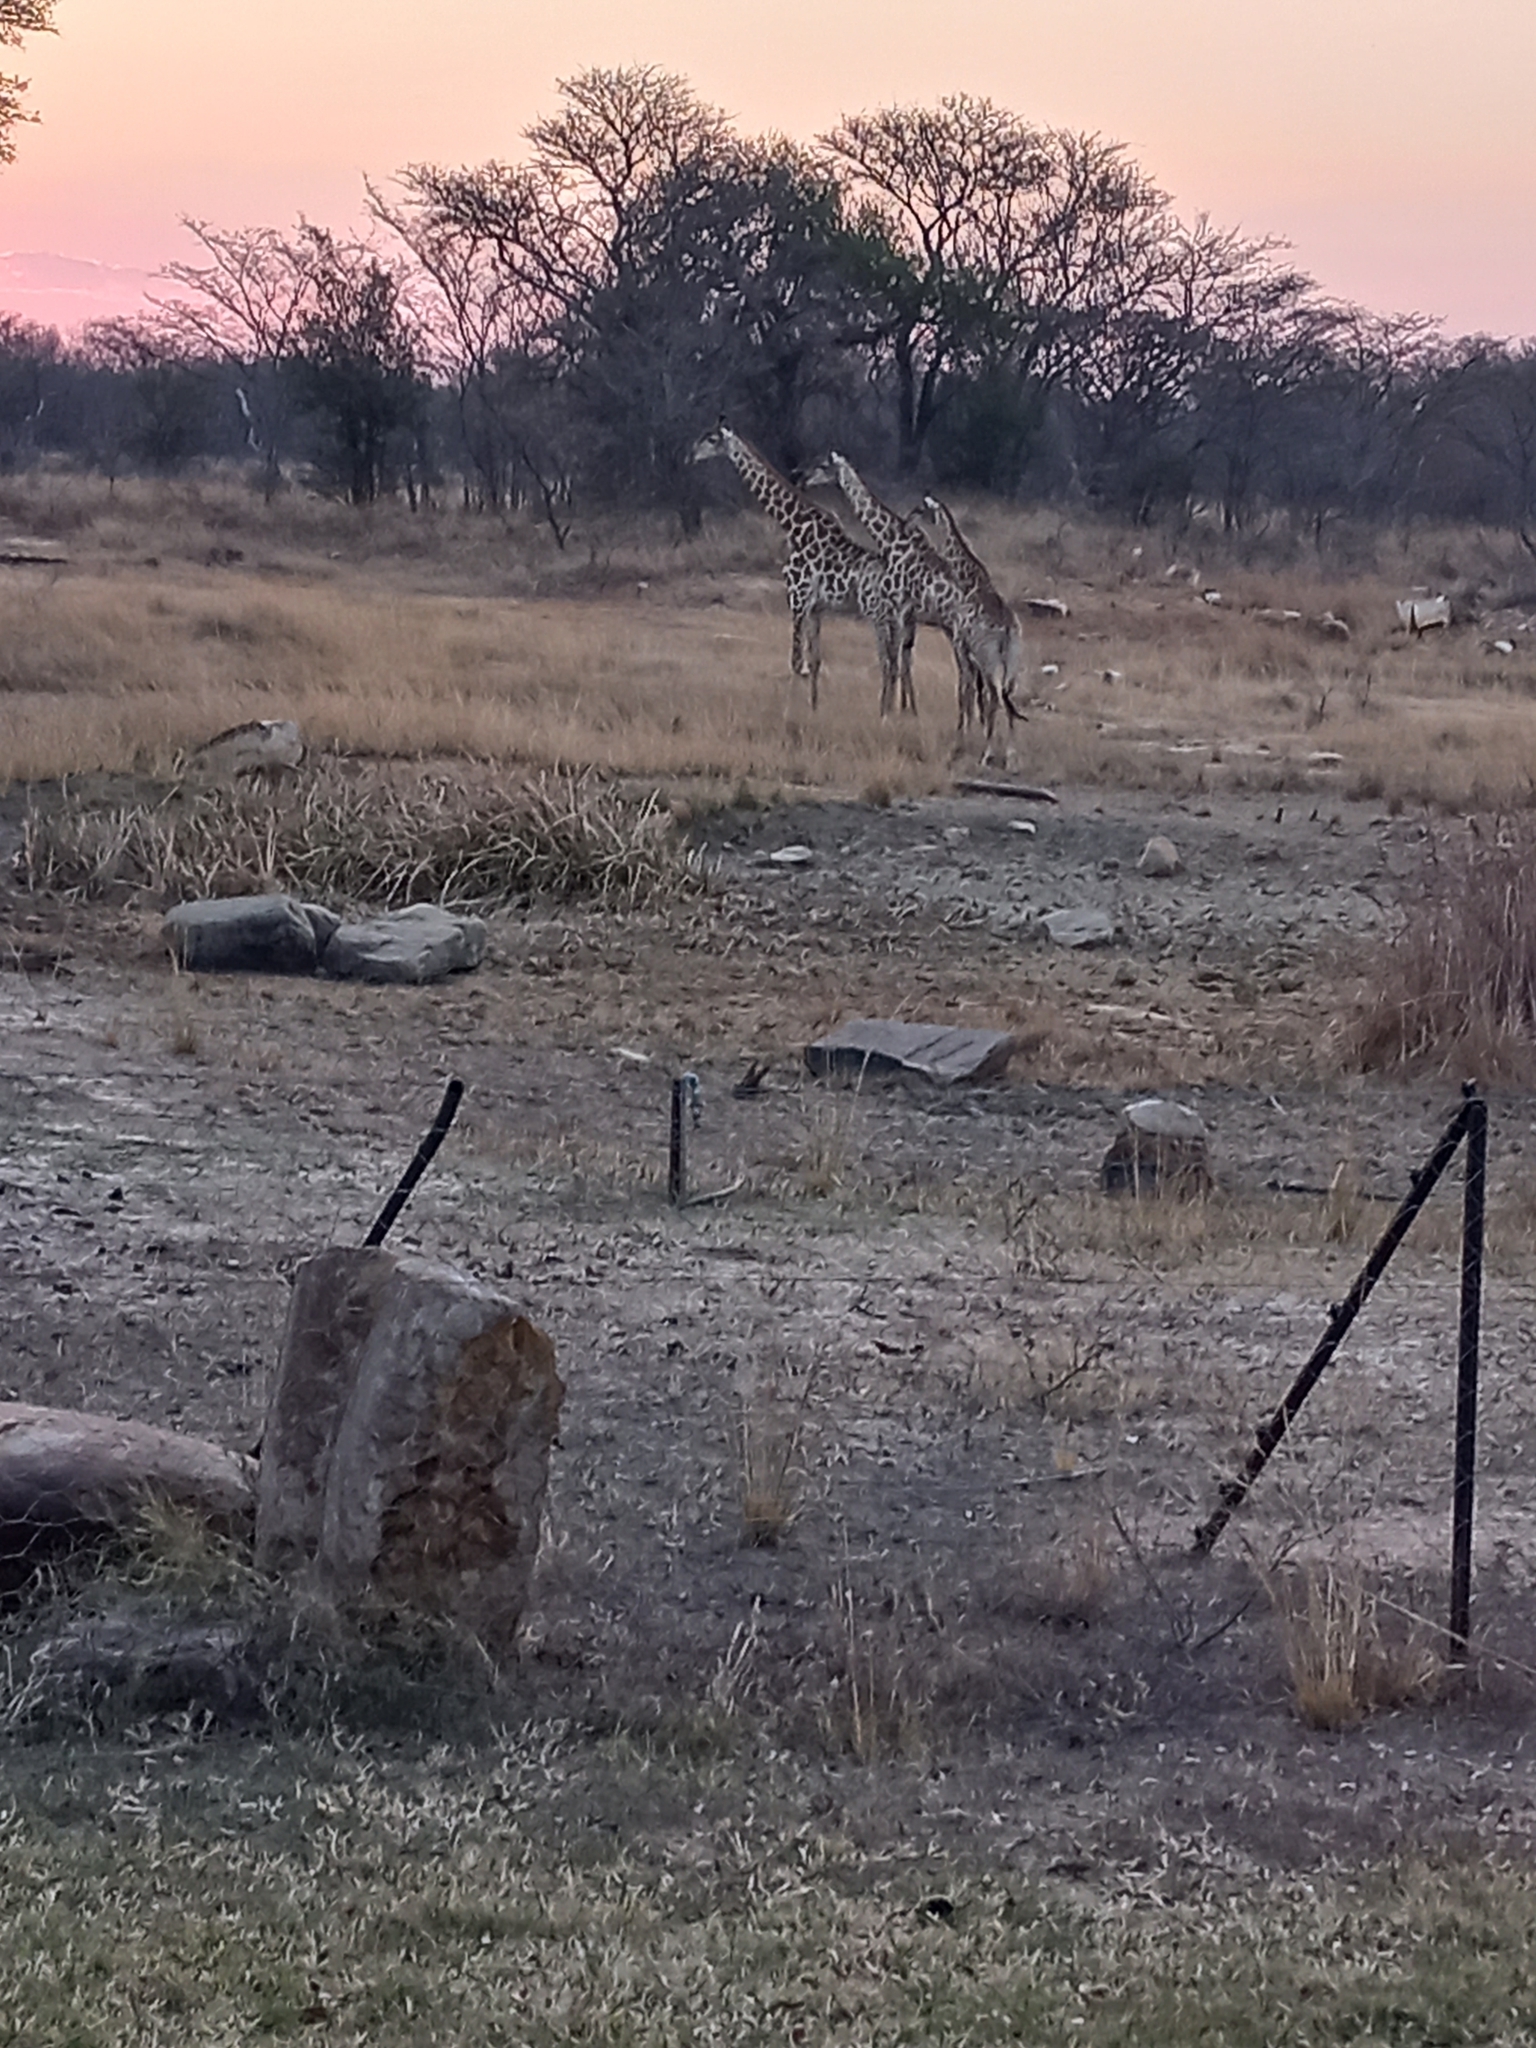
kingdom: Animalia
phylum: Chordata
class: Mammalia
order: Artiodactyla
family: Giraffidae
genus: Giraffa
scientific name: Giraffa giraffa
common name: Southern giraffe
